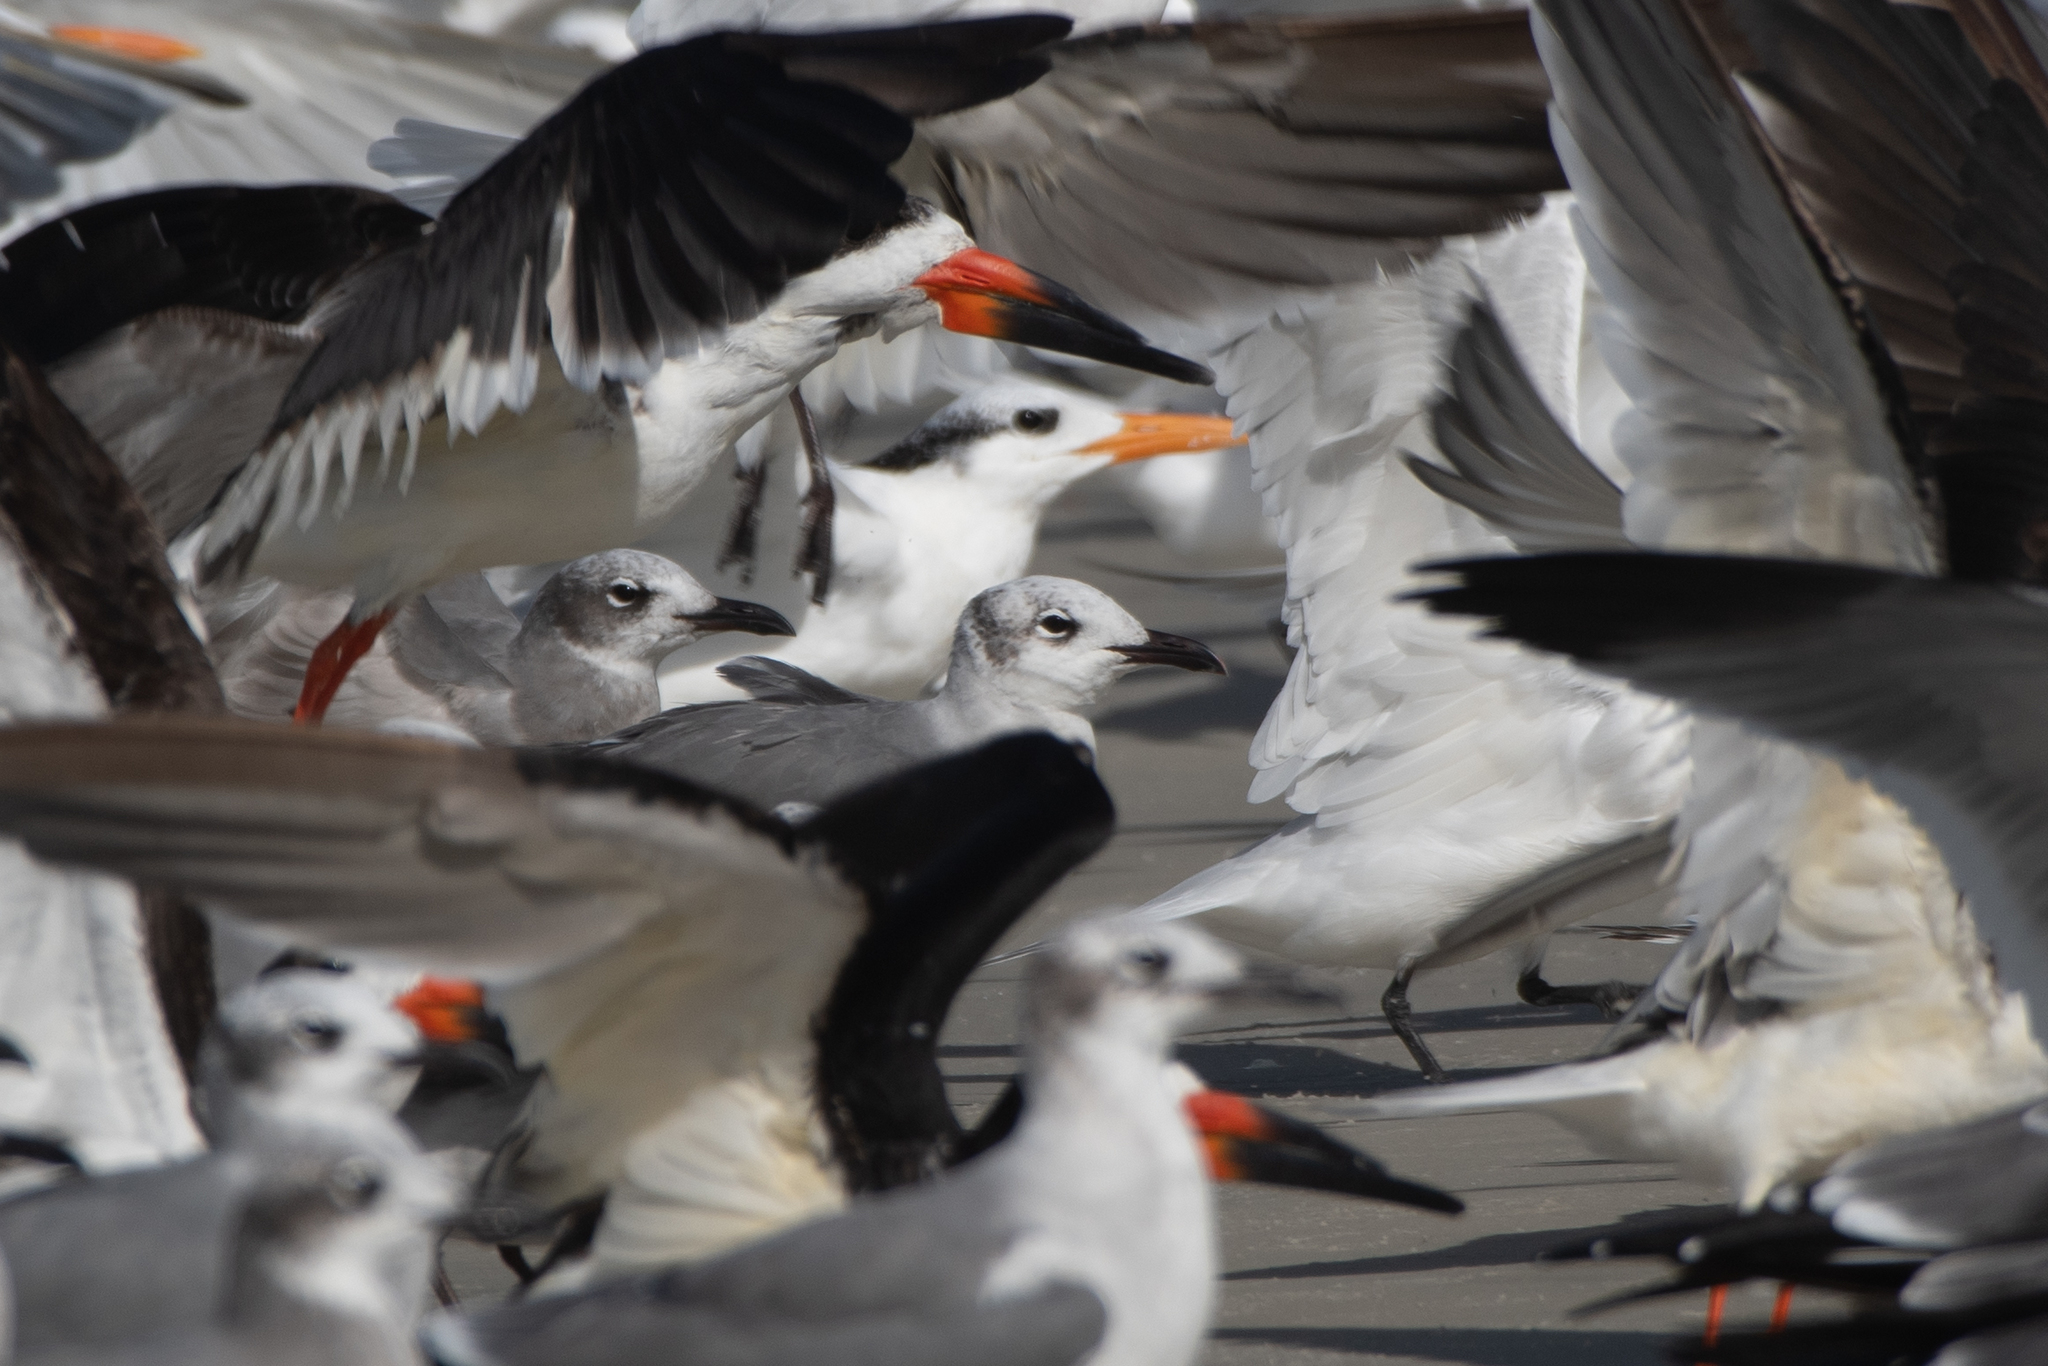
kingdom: Animalia
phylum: Chordata
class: Aves
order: Charadriiformes
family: Laridae
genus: Leucophaeus
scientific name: Leucophaeus atricilla
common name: Laughing gull
